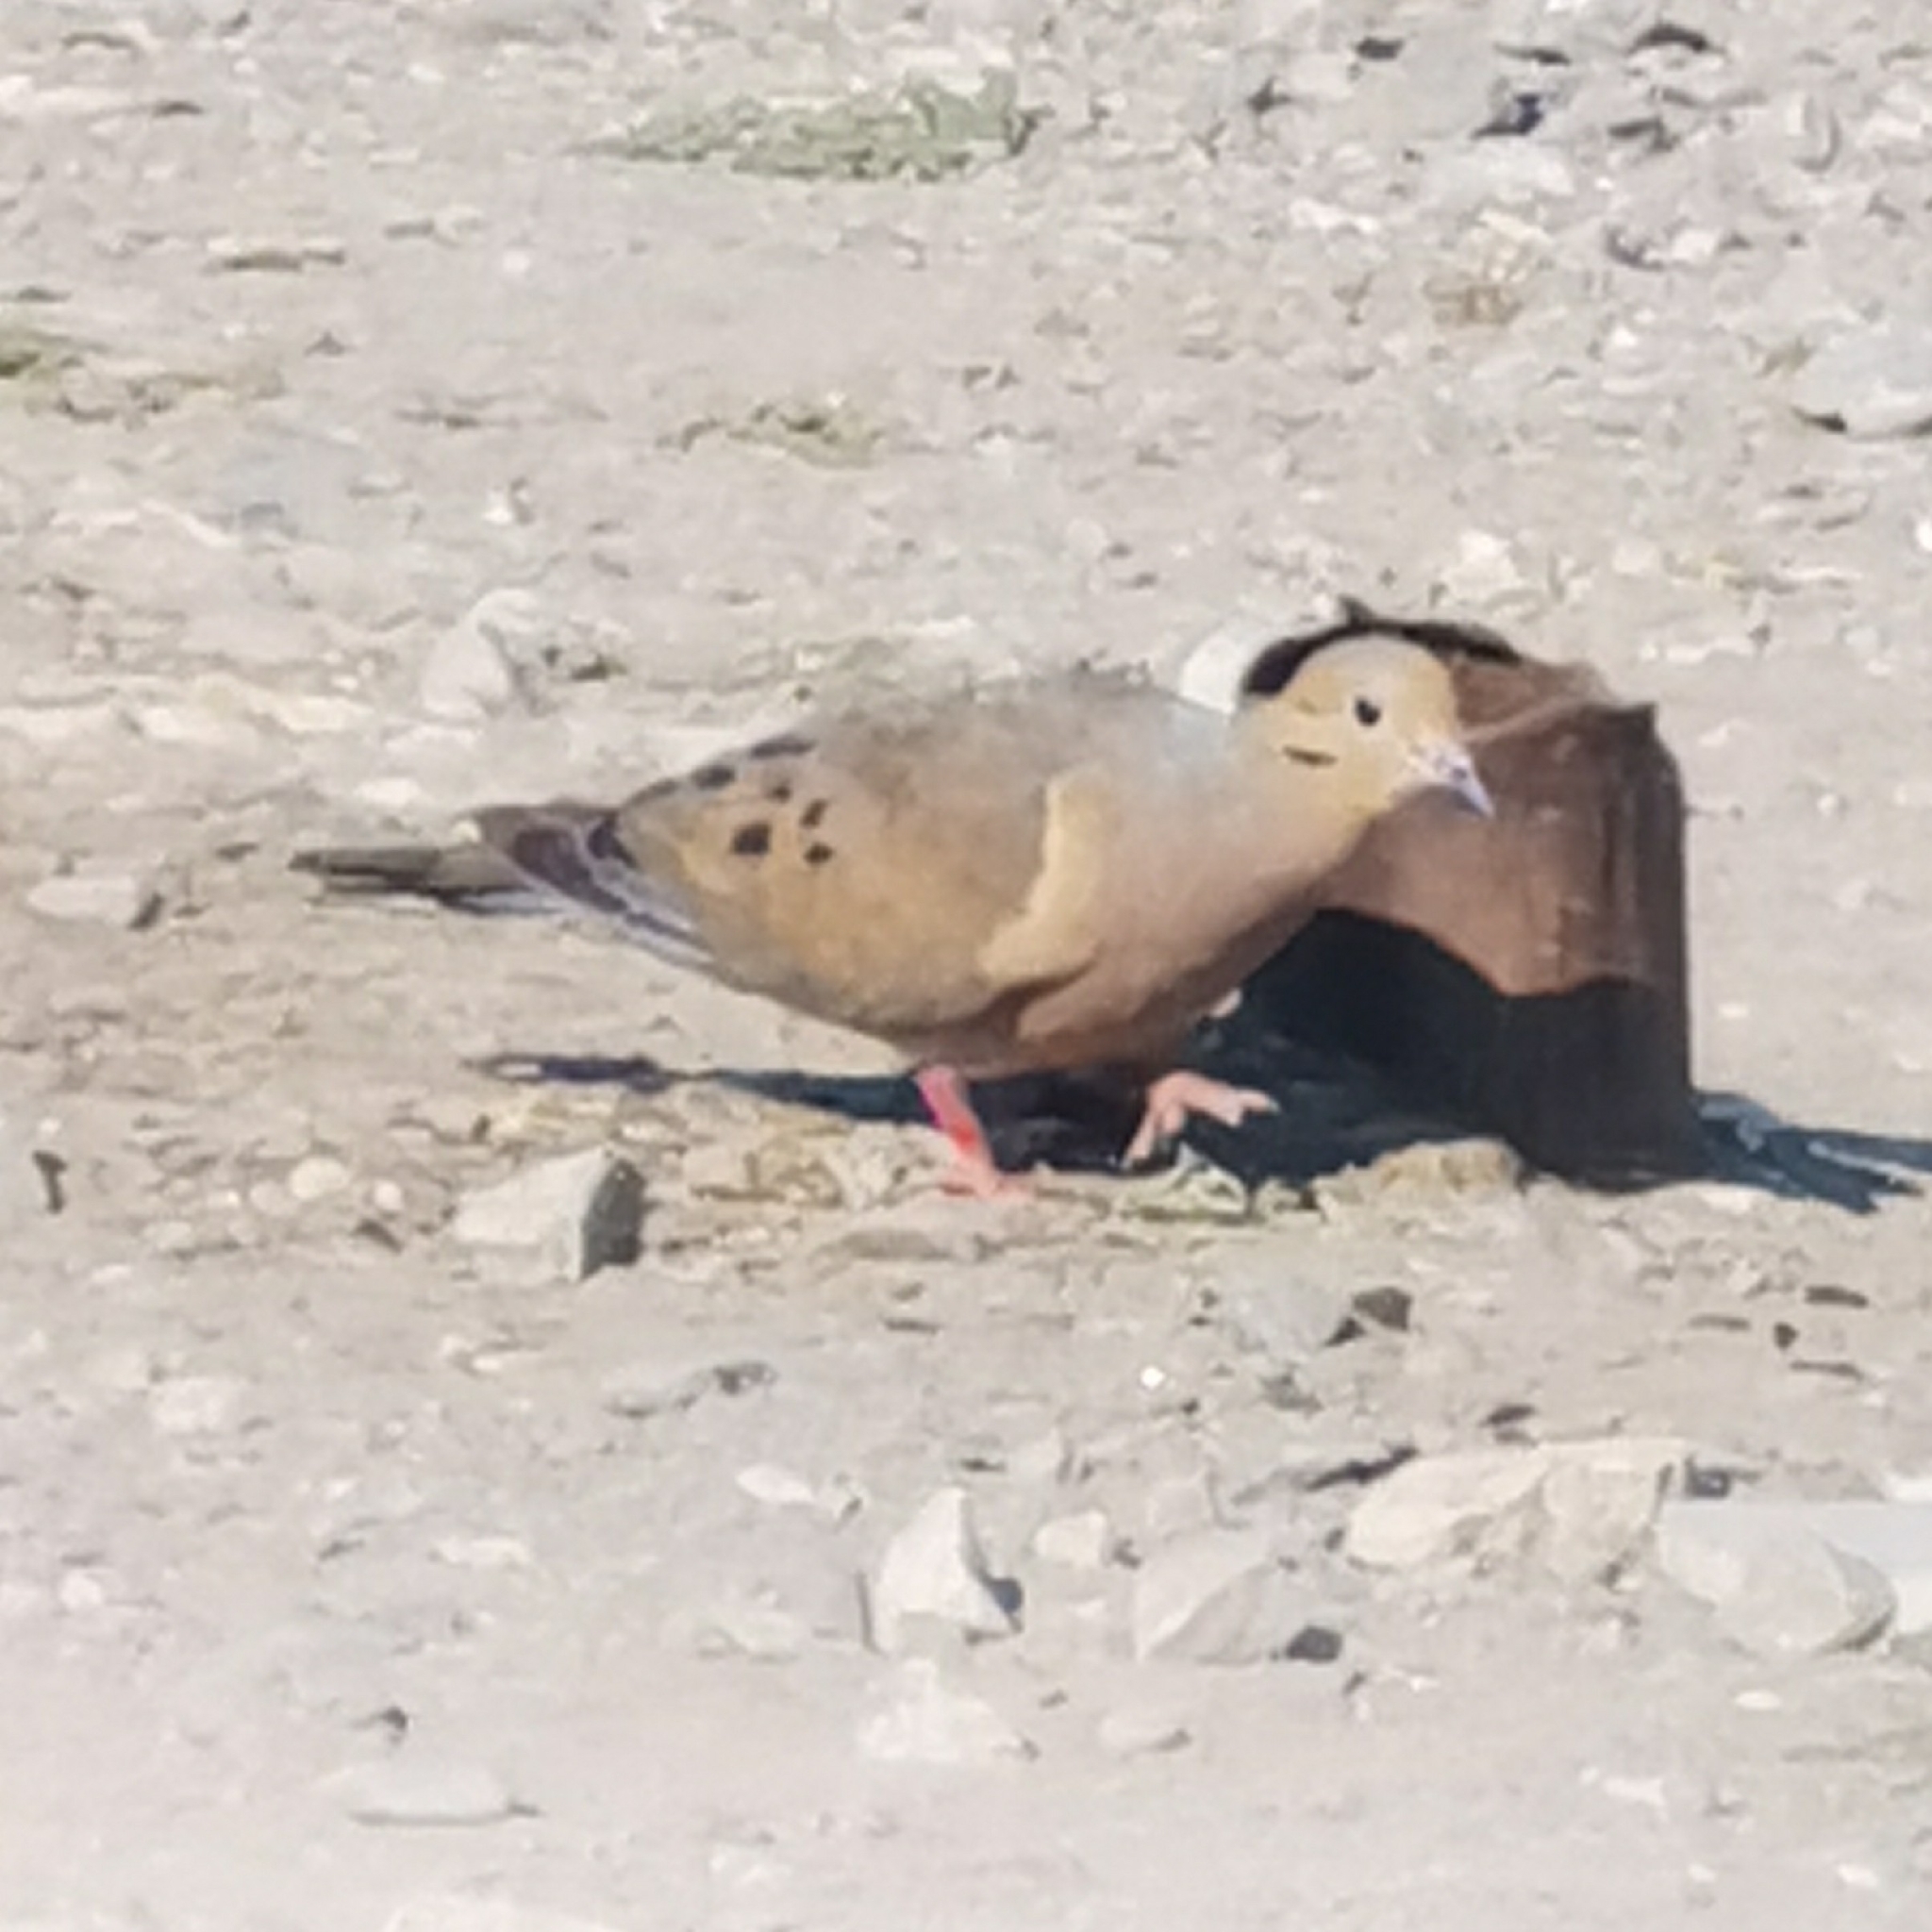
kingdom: Animalia
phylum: Chordata
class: Aves
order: Columbiformes
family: Columbidae
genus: Zenaida
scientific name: Zenaida macroura
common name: Mourning dove
